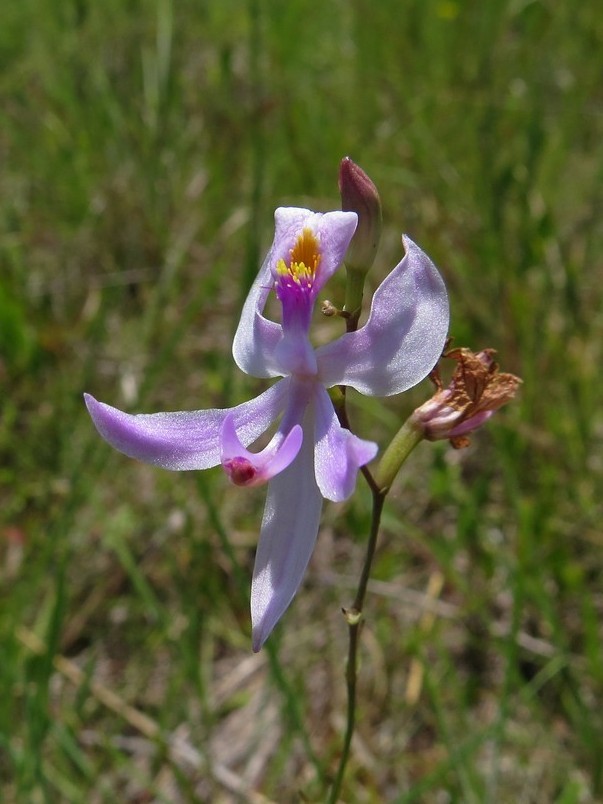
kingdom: Plantae
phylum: Tracheophyta
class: Liliopsida
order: Asparagales
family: Orchidaceae
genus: Calopogon
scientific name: Calopogon pallidus
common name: Pale grasspink
